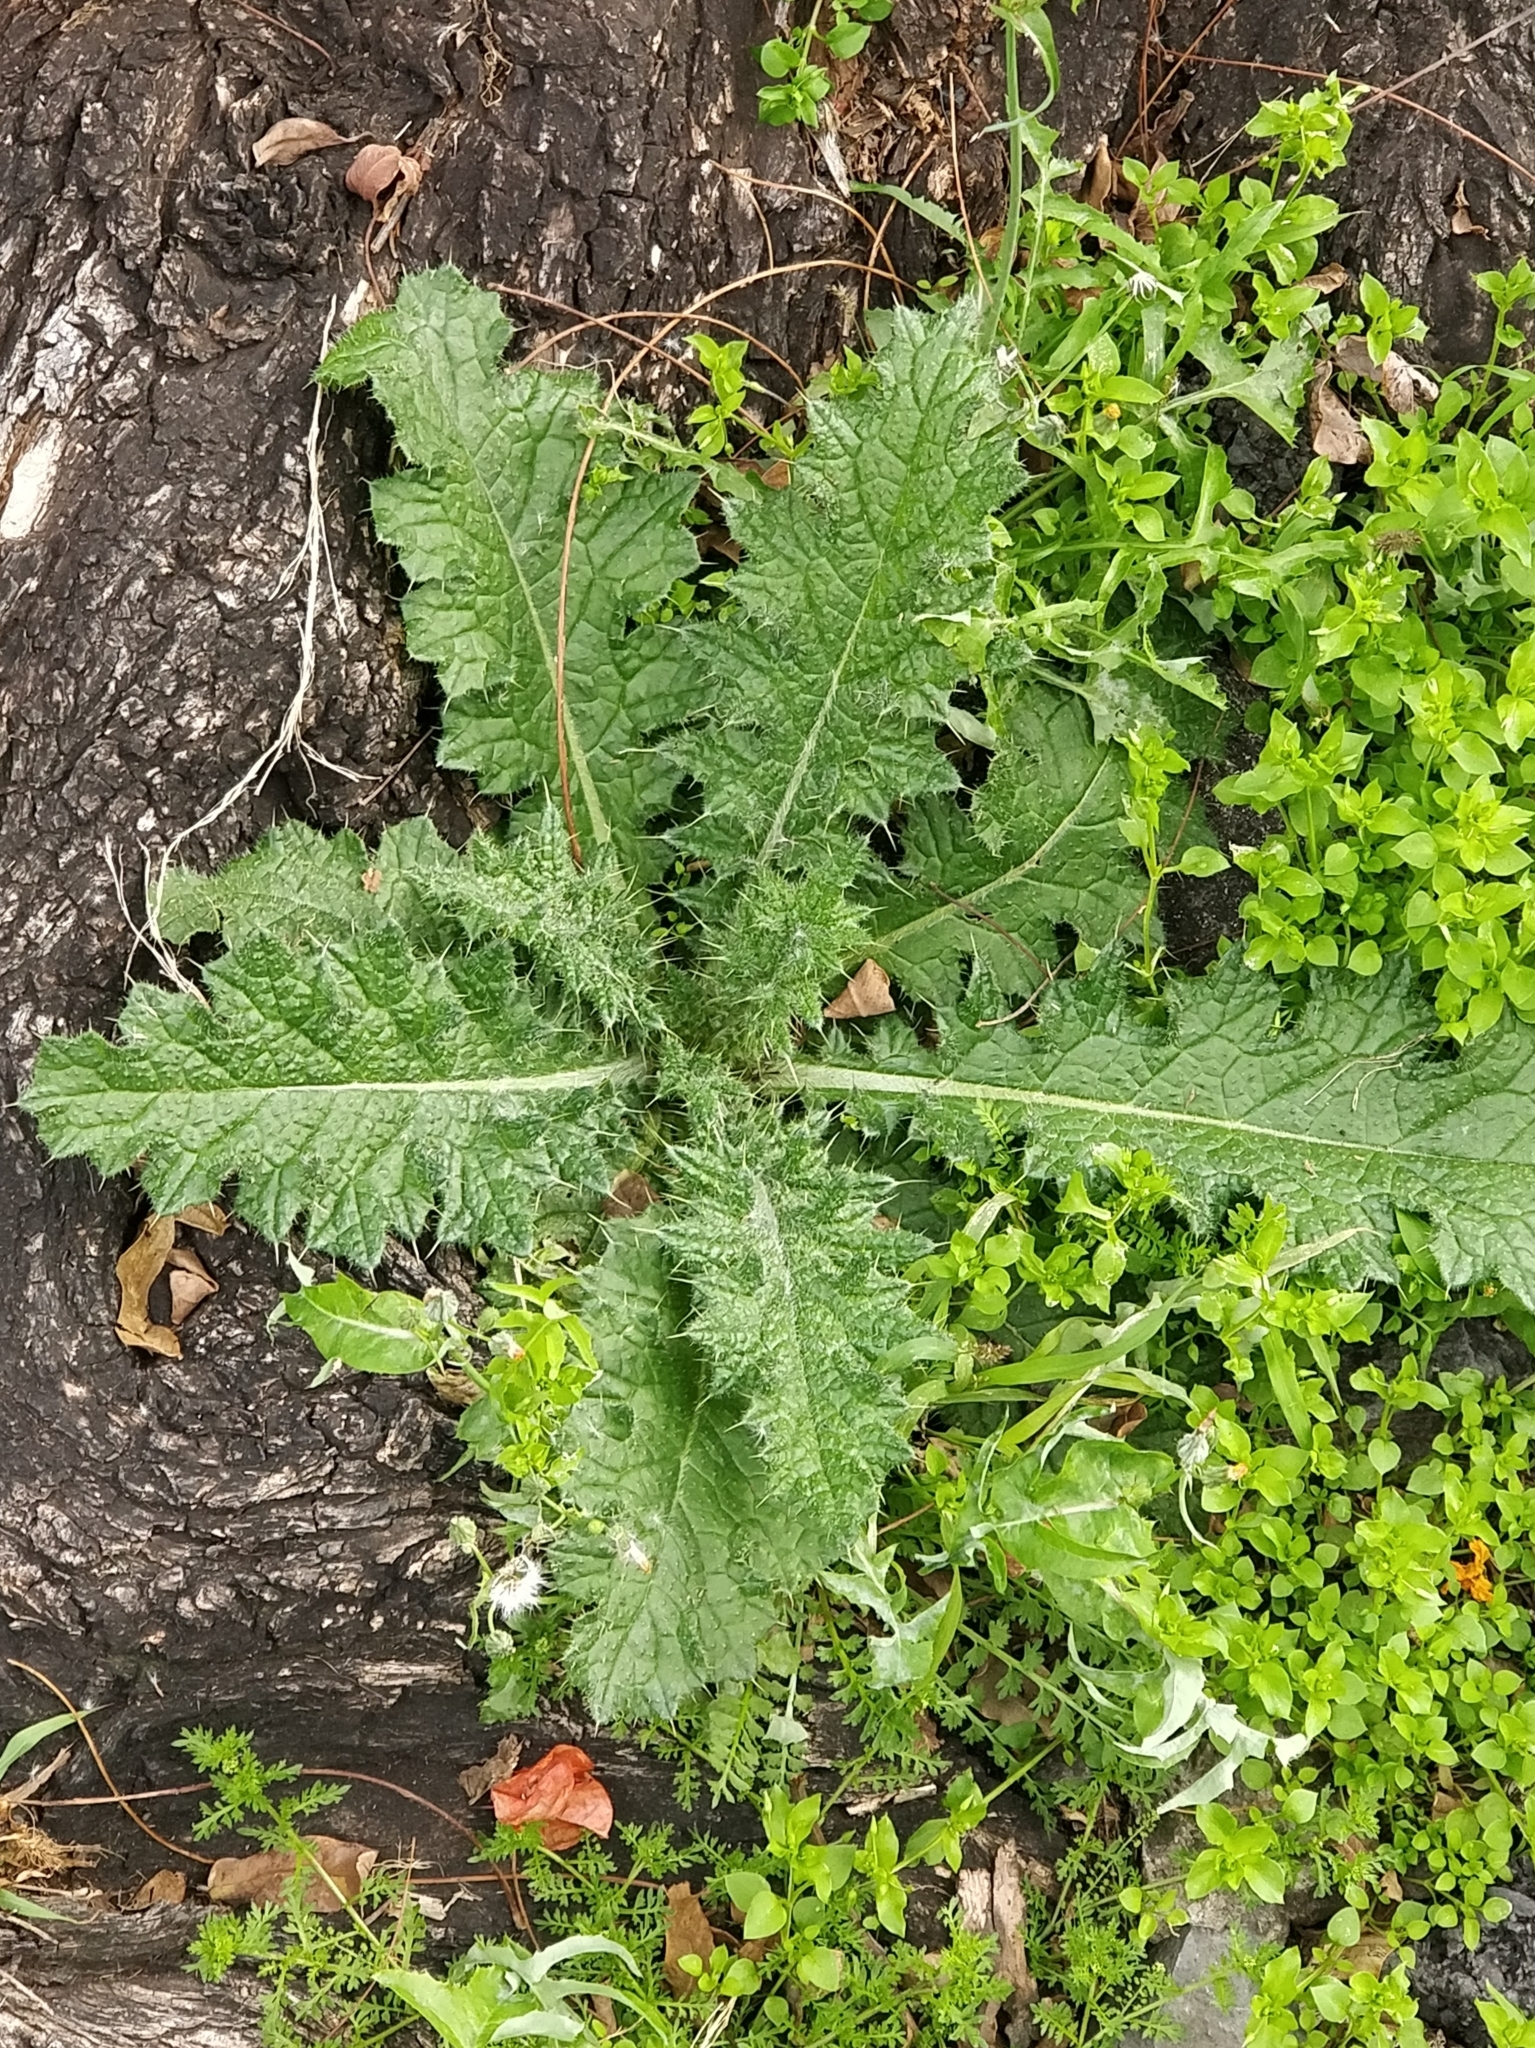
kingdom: Plantae
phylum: Tracheophyta
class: Magnoliopsida
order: Asterales
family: Asteraceae
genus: Cirsium
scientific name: Cirsium vulgare
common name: Bull thistle
